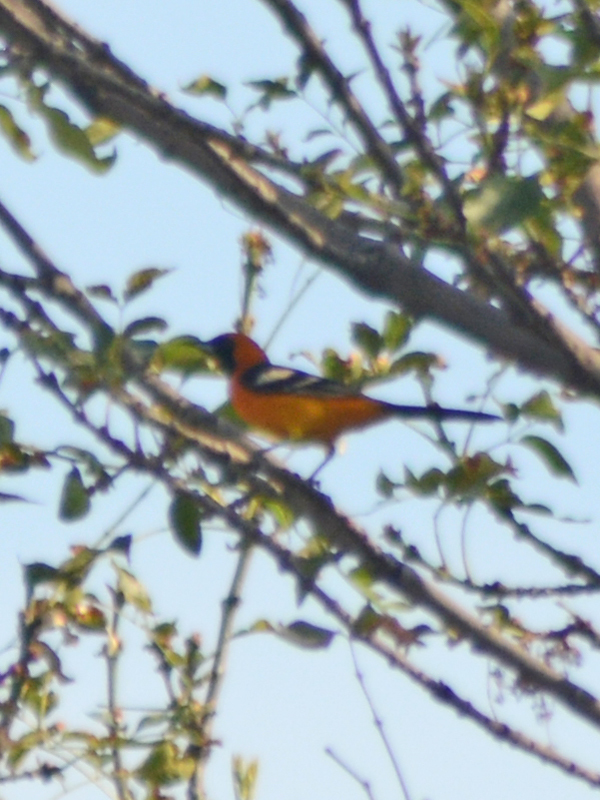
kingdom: Animalia
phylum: Chordata
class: Aves
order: Passeriformes
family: Icteridae
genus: Icterus
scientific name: Icterus cucullatus
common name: Hooded oriole
